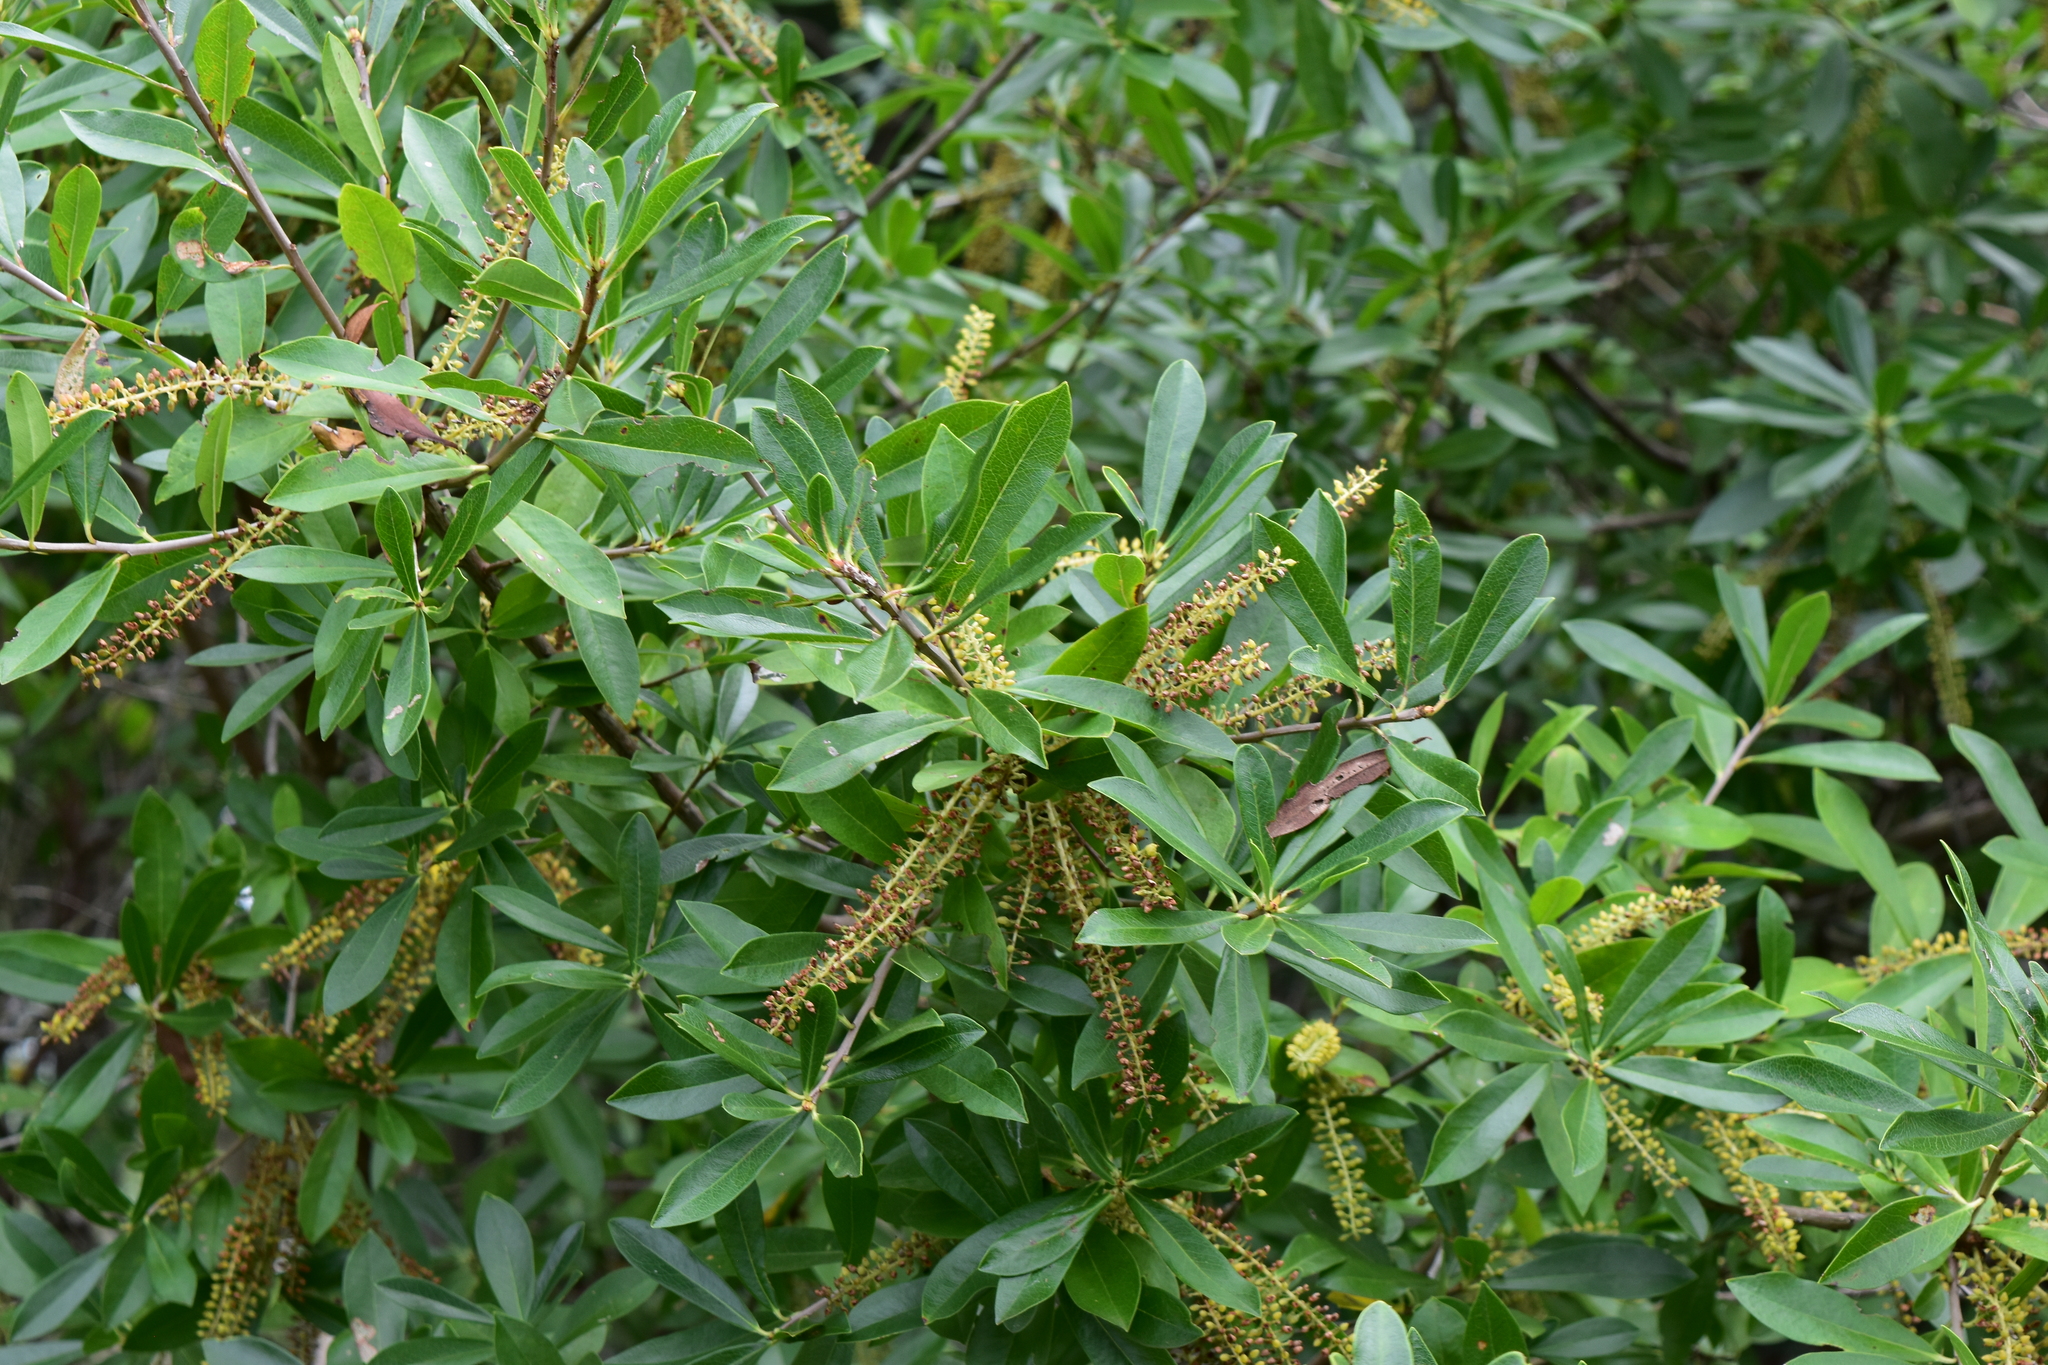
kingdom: Plantae
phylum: Tracheophyta
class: Magnoliopsida
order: Ericales
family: Cyrillaceae
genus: Cyrilla
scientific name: Cyrilla racemiflora
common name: Black titi
